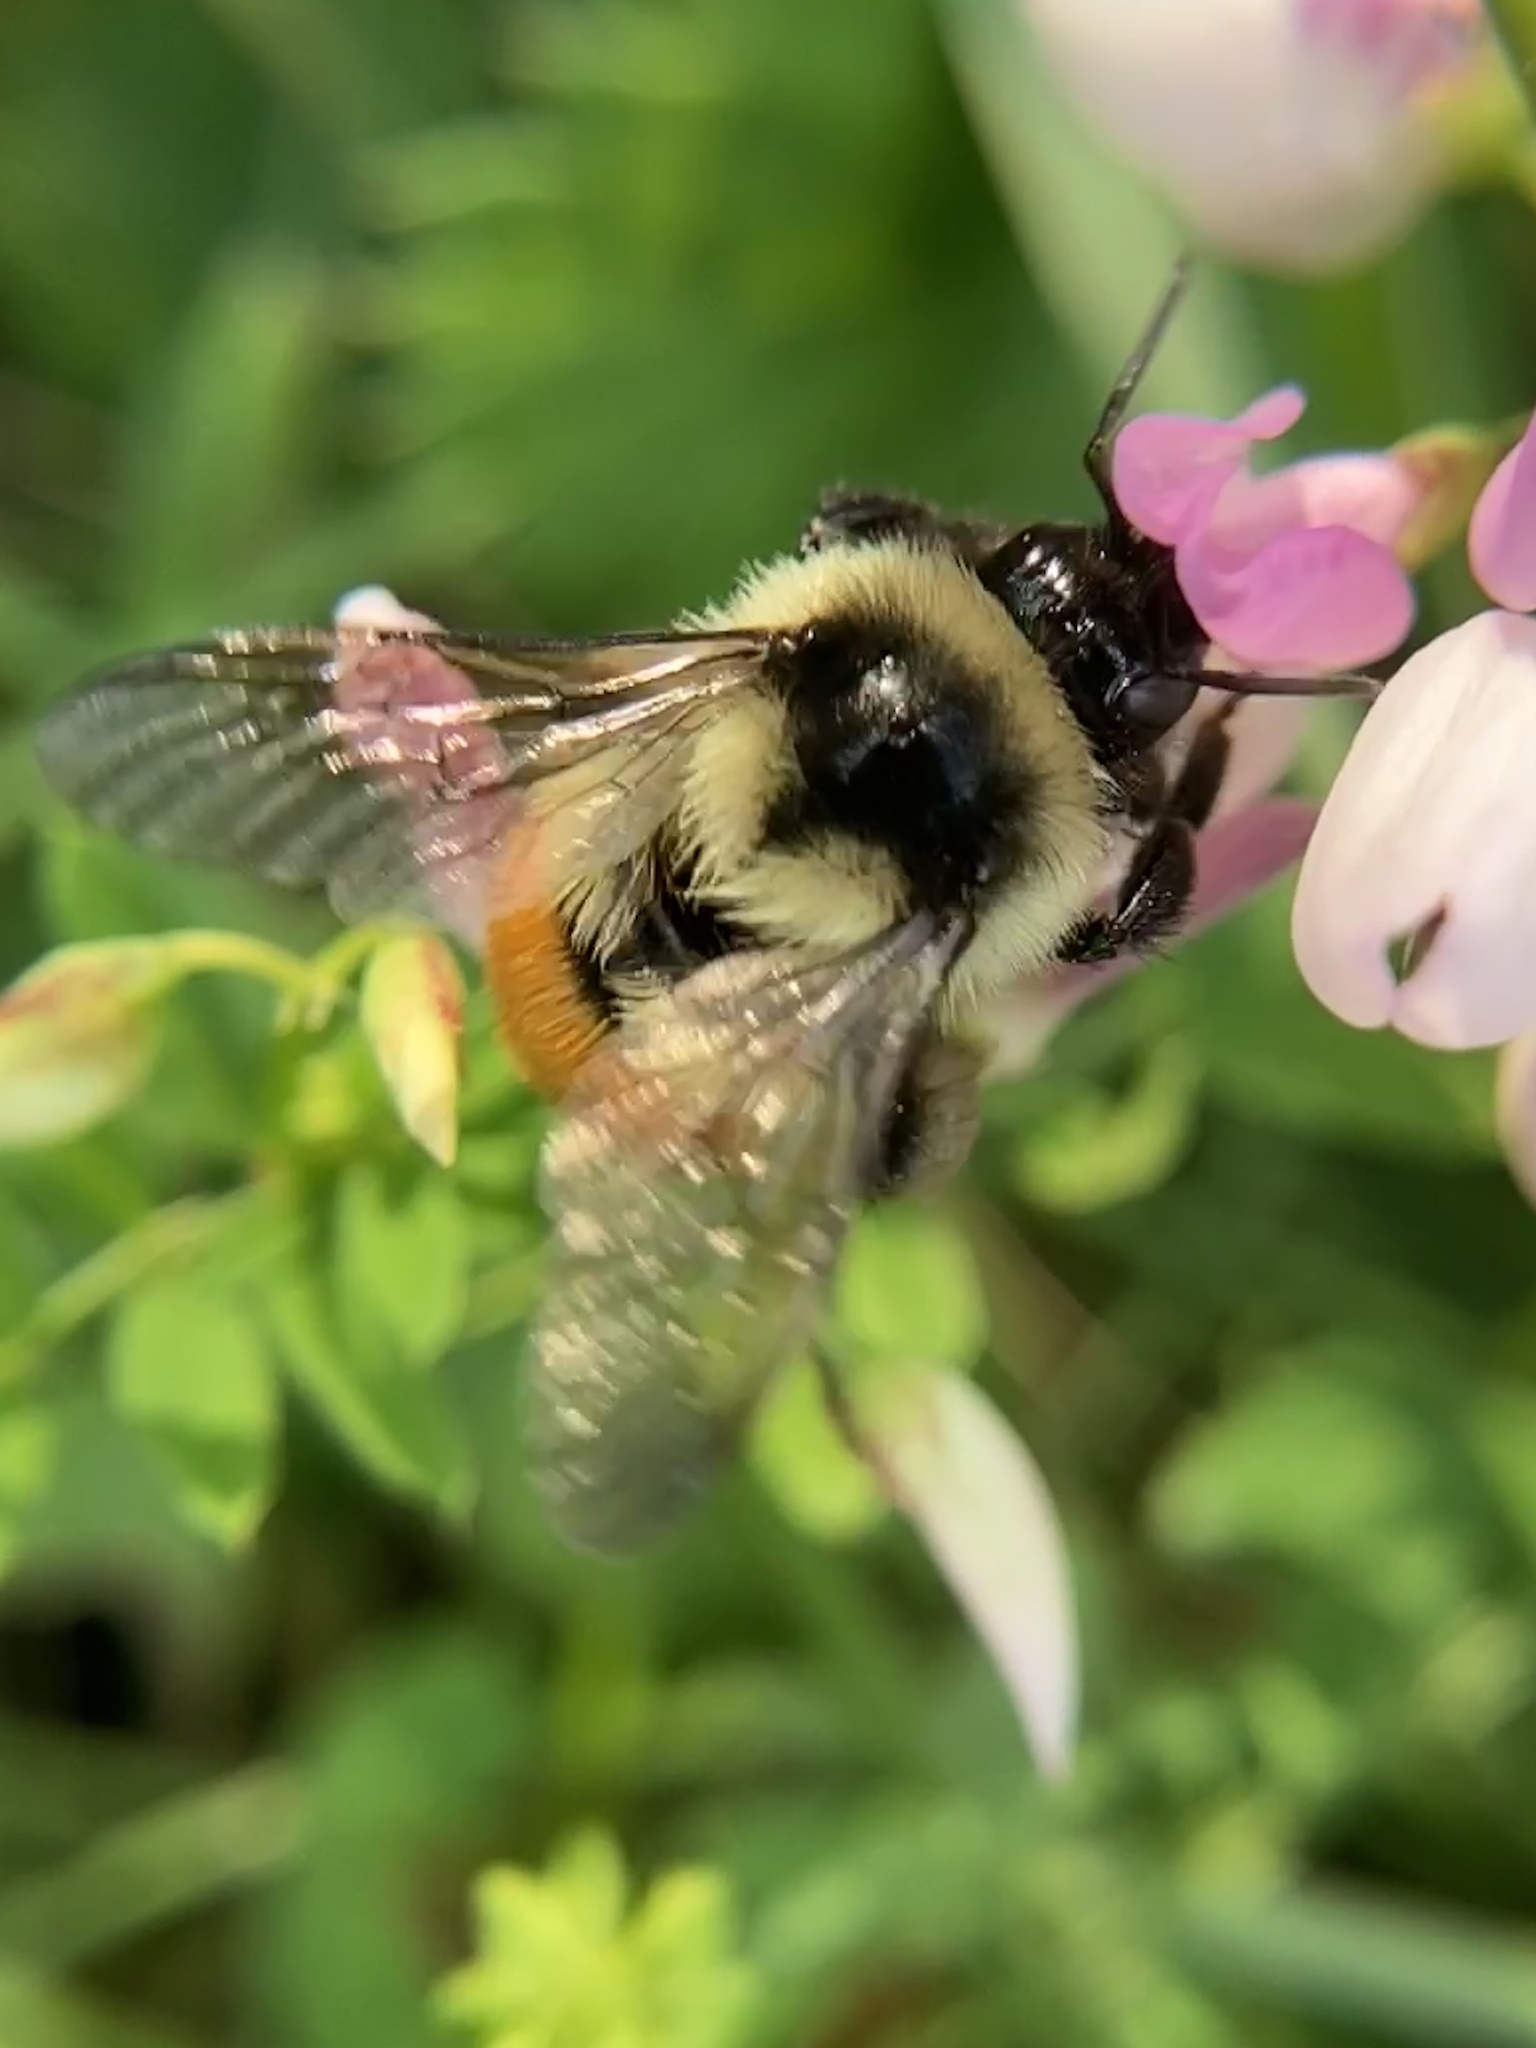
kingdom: Animalia
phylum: Arthropoda
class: Insecta
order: Hymenoptera
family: Apidae
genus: Bombus
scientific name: Bombus ternarius
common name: Tri-colored bumble bee
